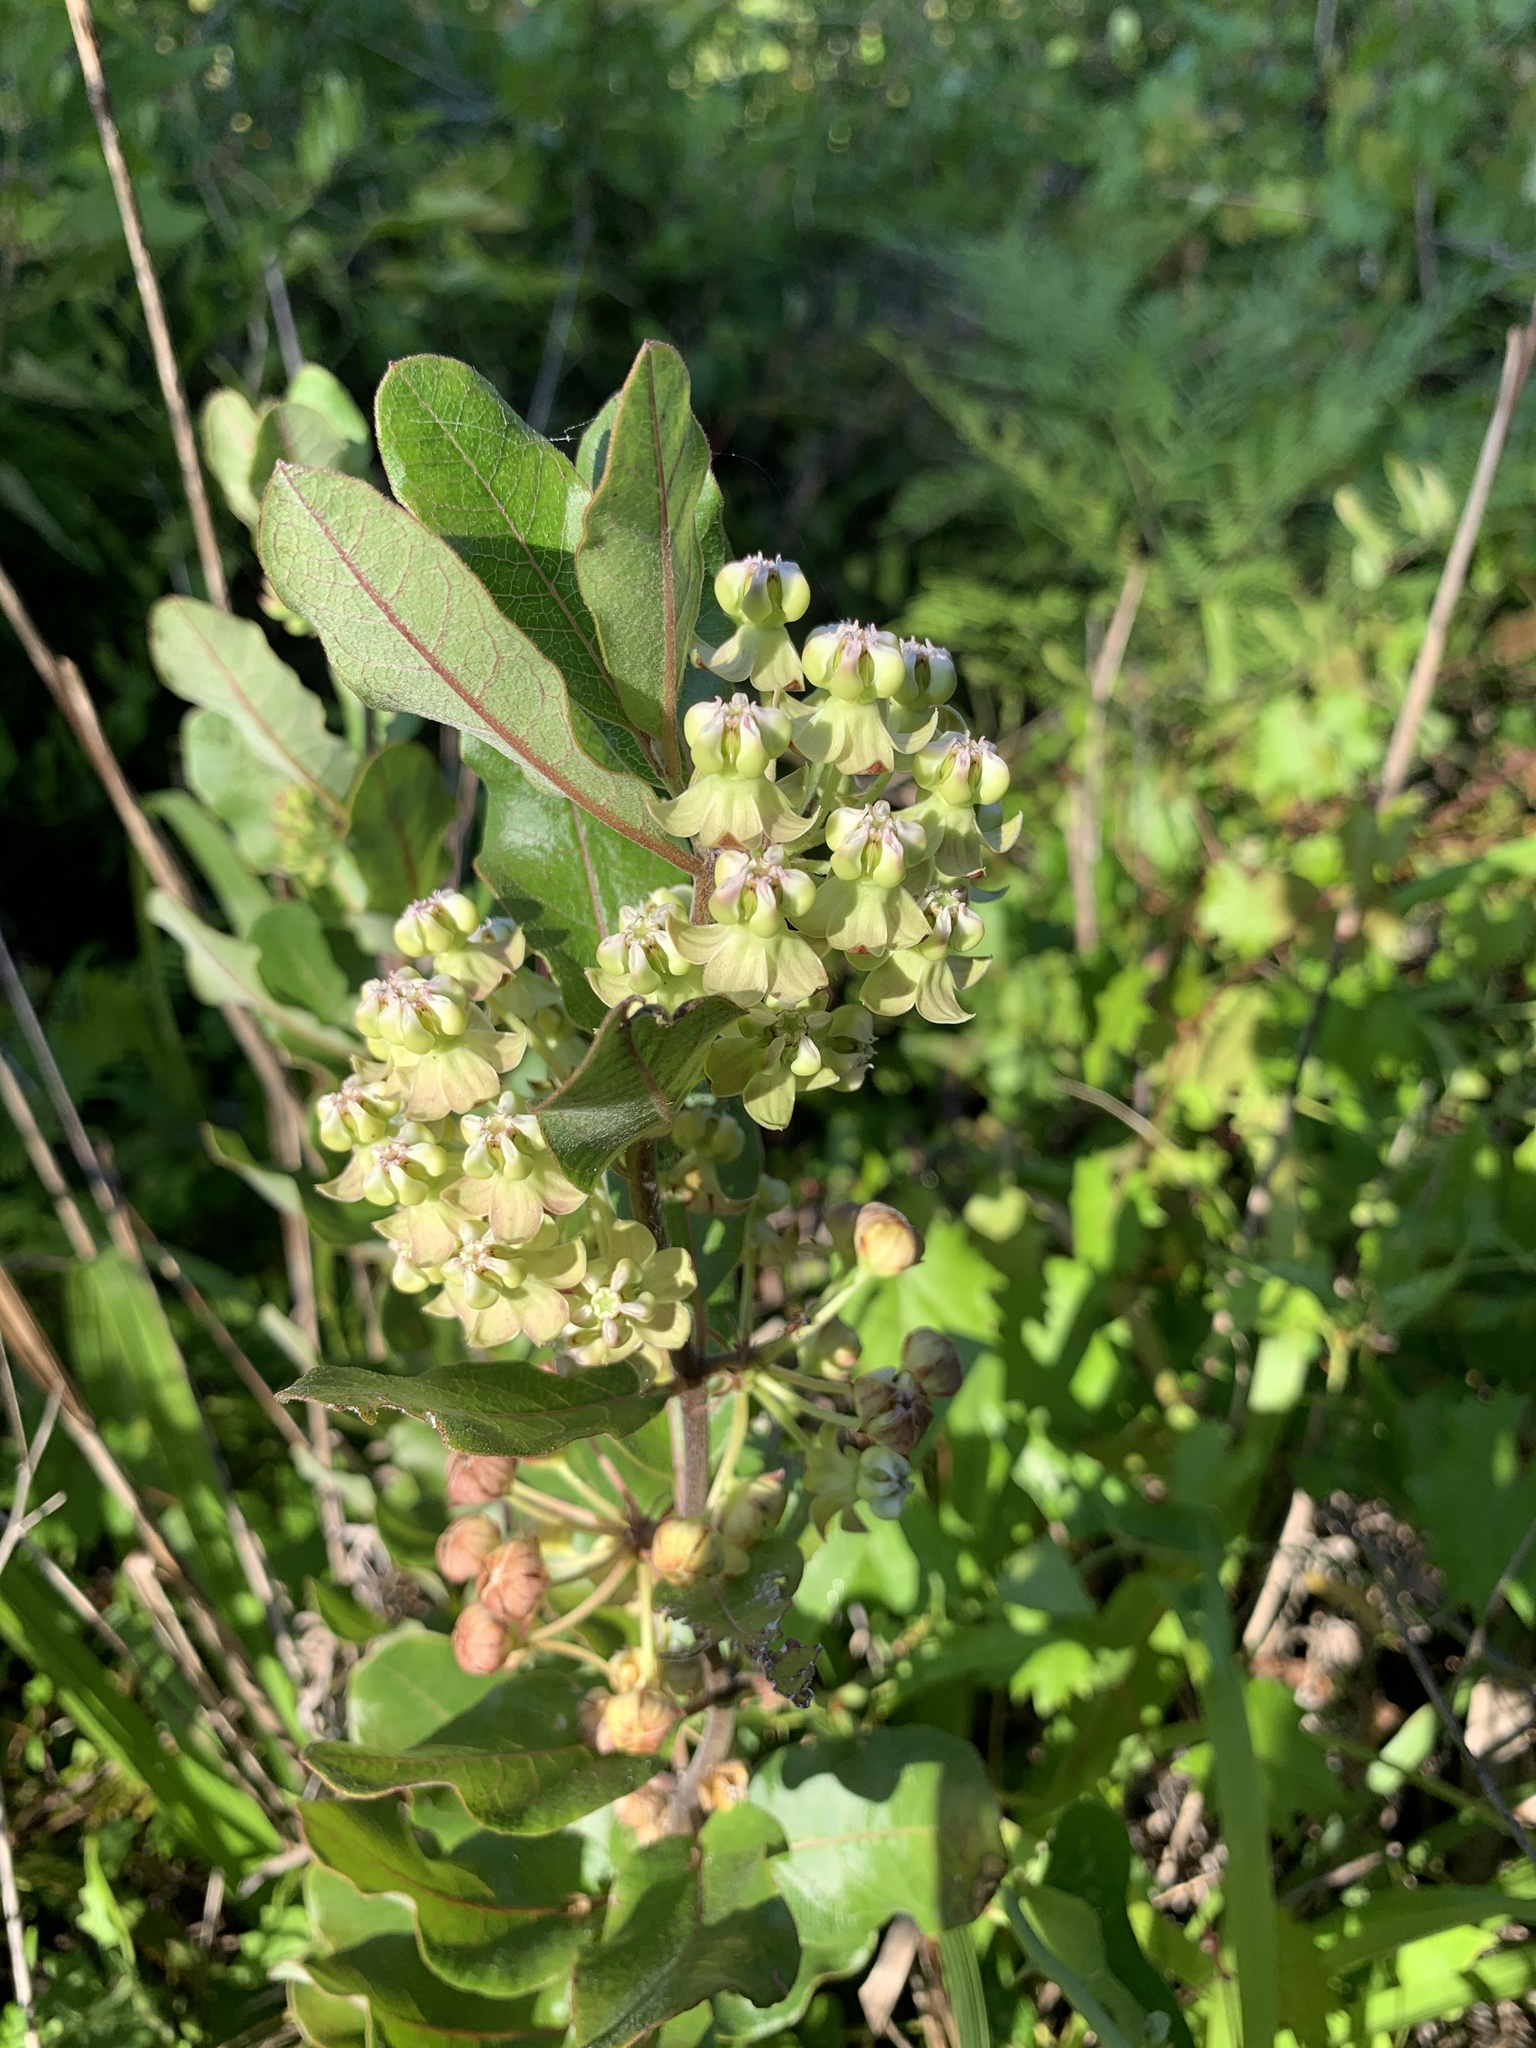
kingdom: Plantae
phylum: Tracheophyta
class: Magnoliopsida
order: Gentianales
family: Apocynaceae
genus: Asclepias
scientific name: Asclepias tomentosa
